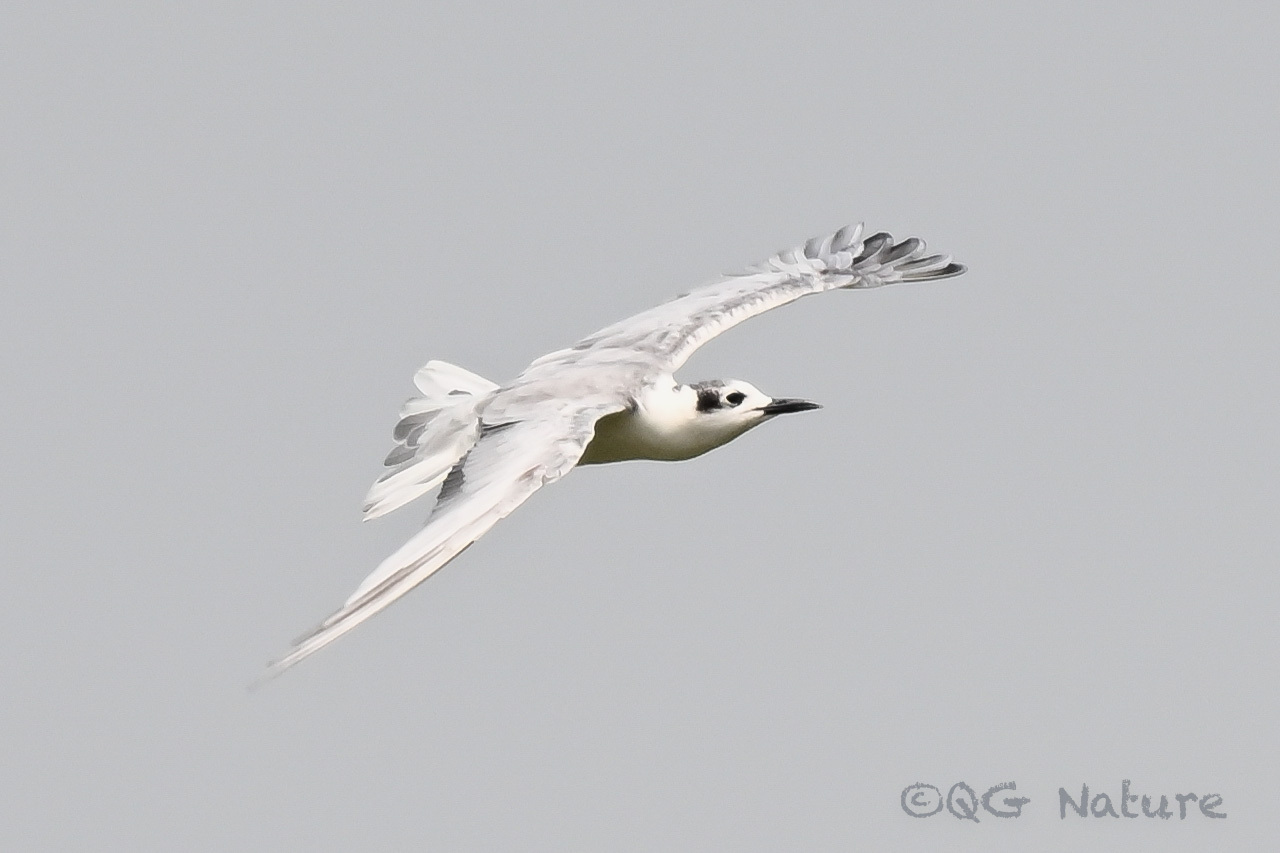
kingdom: Animalia
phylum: Chordata
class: Aves
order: Charadriiformes
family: Laridae
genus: Chlidonias
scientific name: Chlidonias leucopterus
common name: White-winged tern
